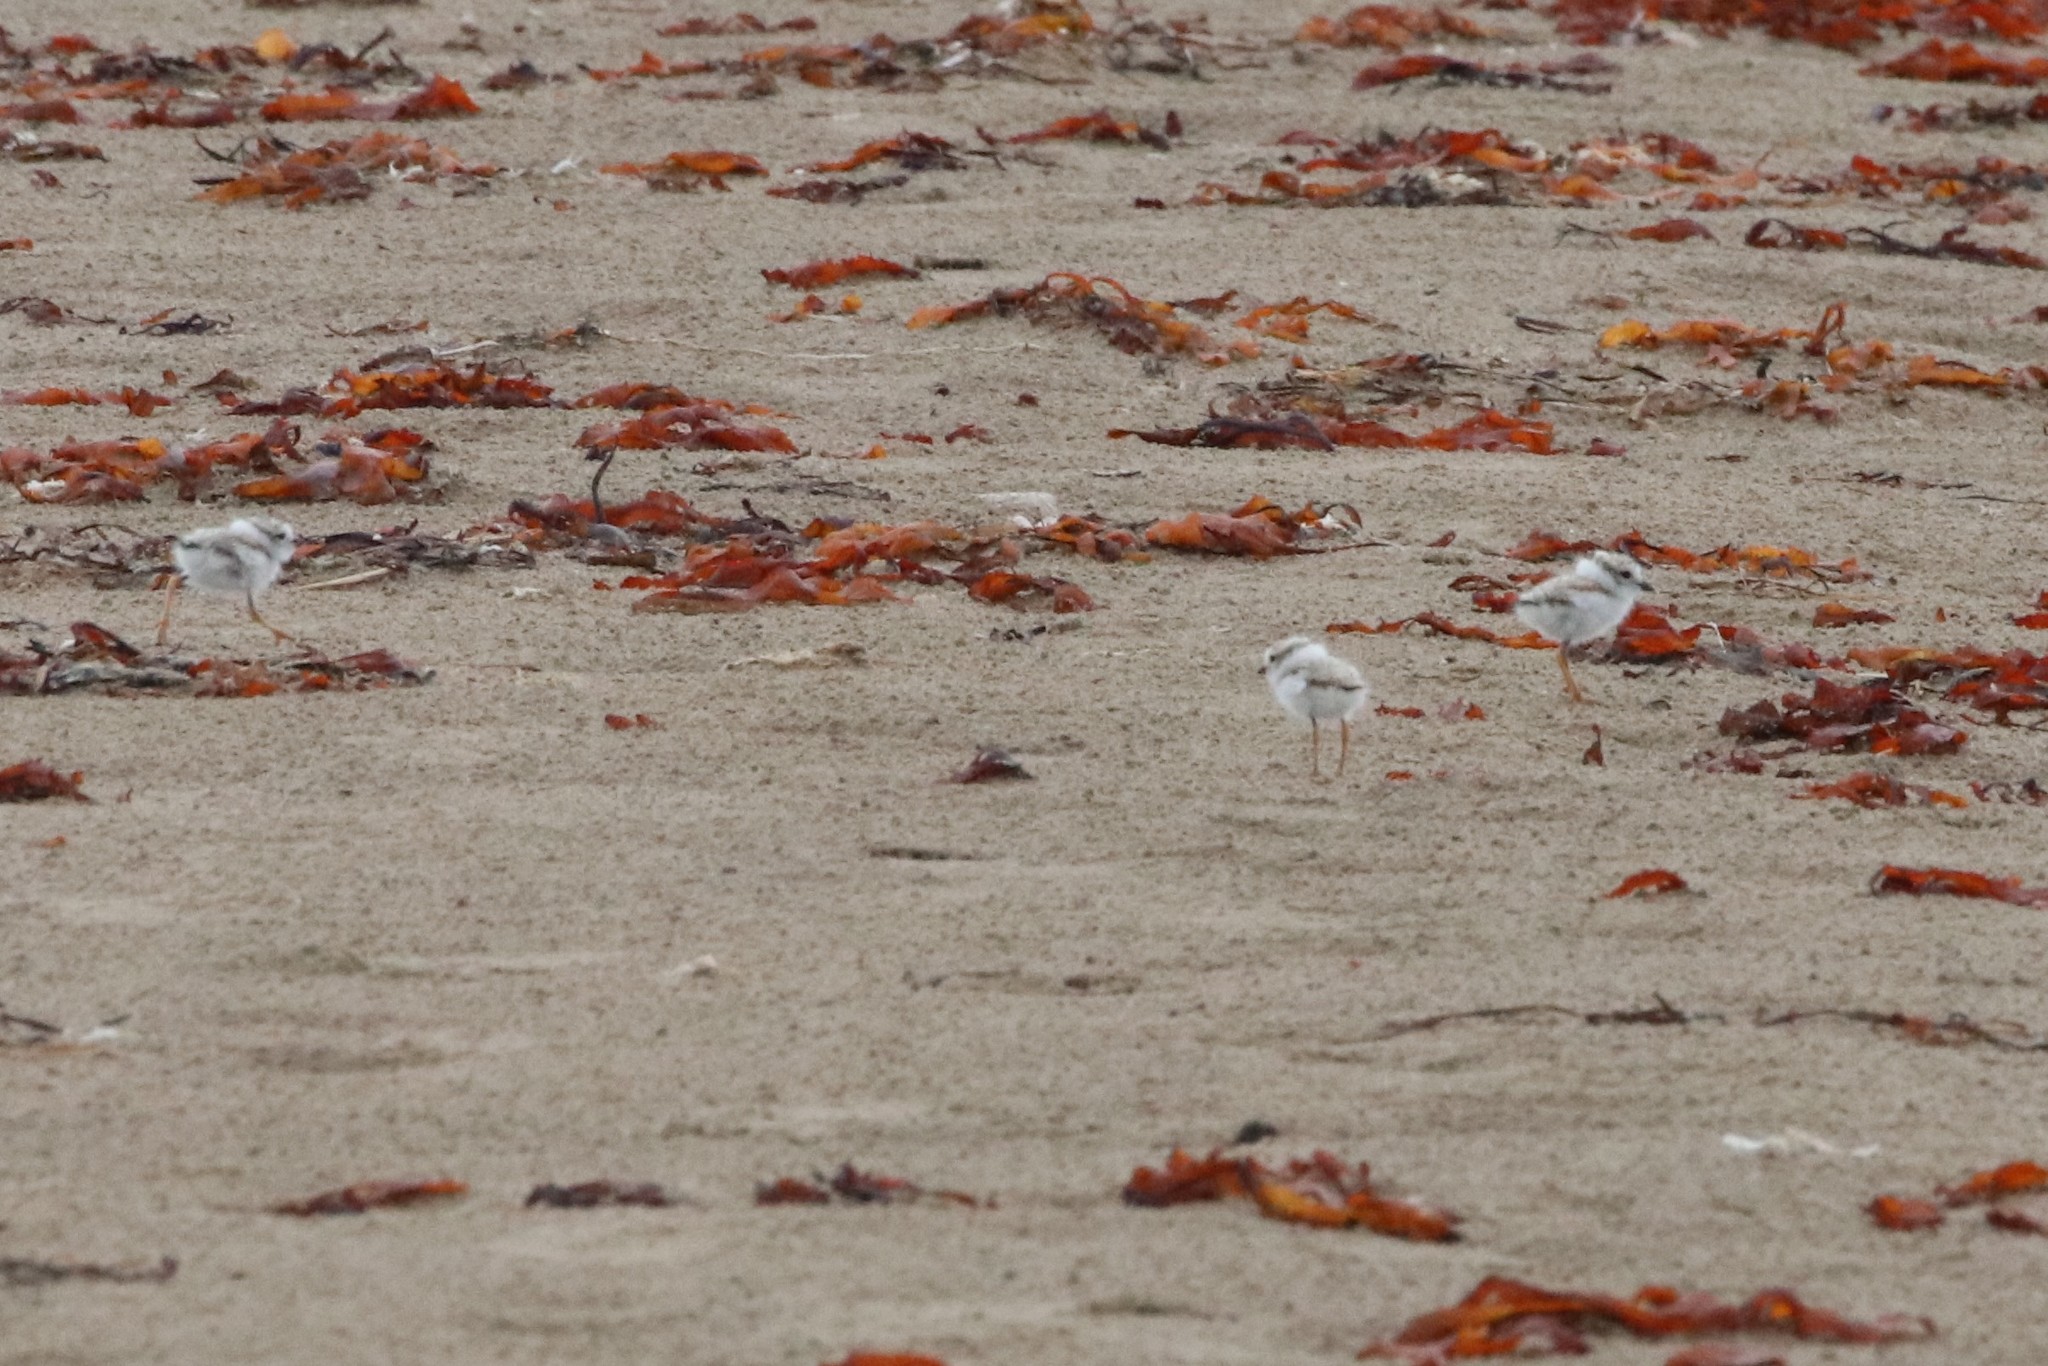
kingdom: Animalia
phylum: Chordata
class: Aves
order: Charadriiformes
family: Charadriidae
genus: Charadrius
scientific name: Charadrius melodus
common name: Piping plover
